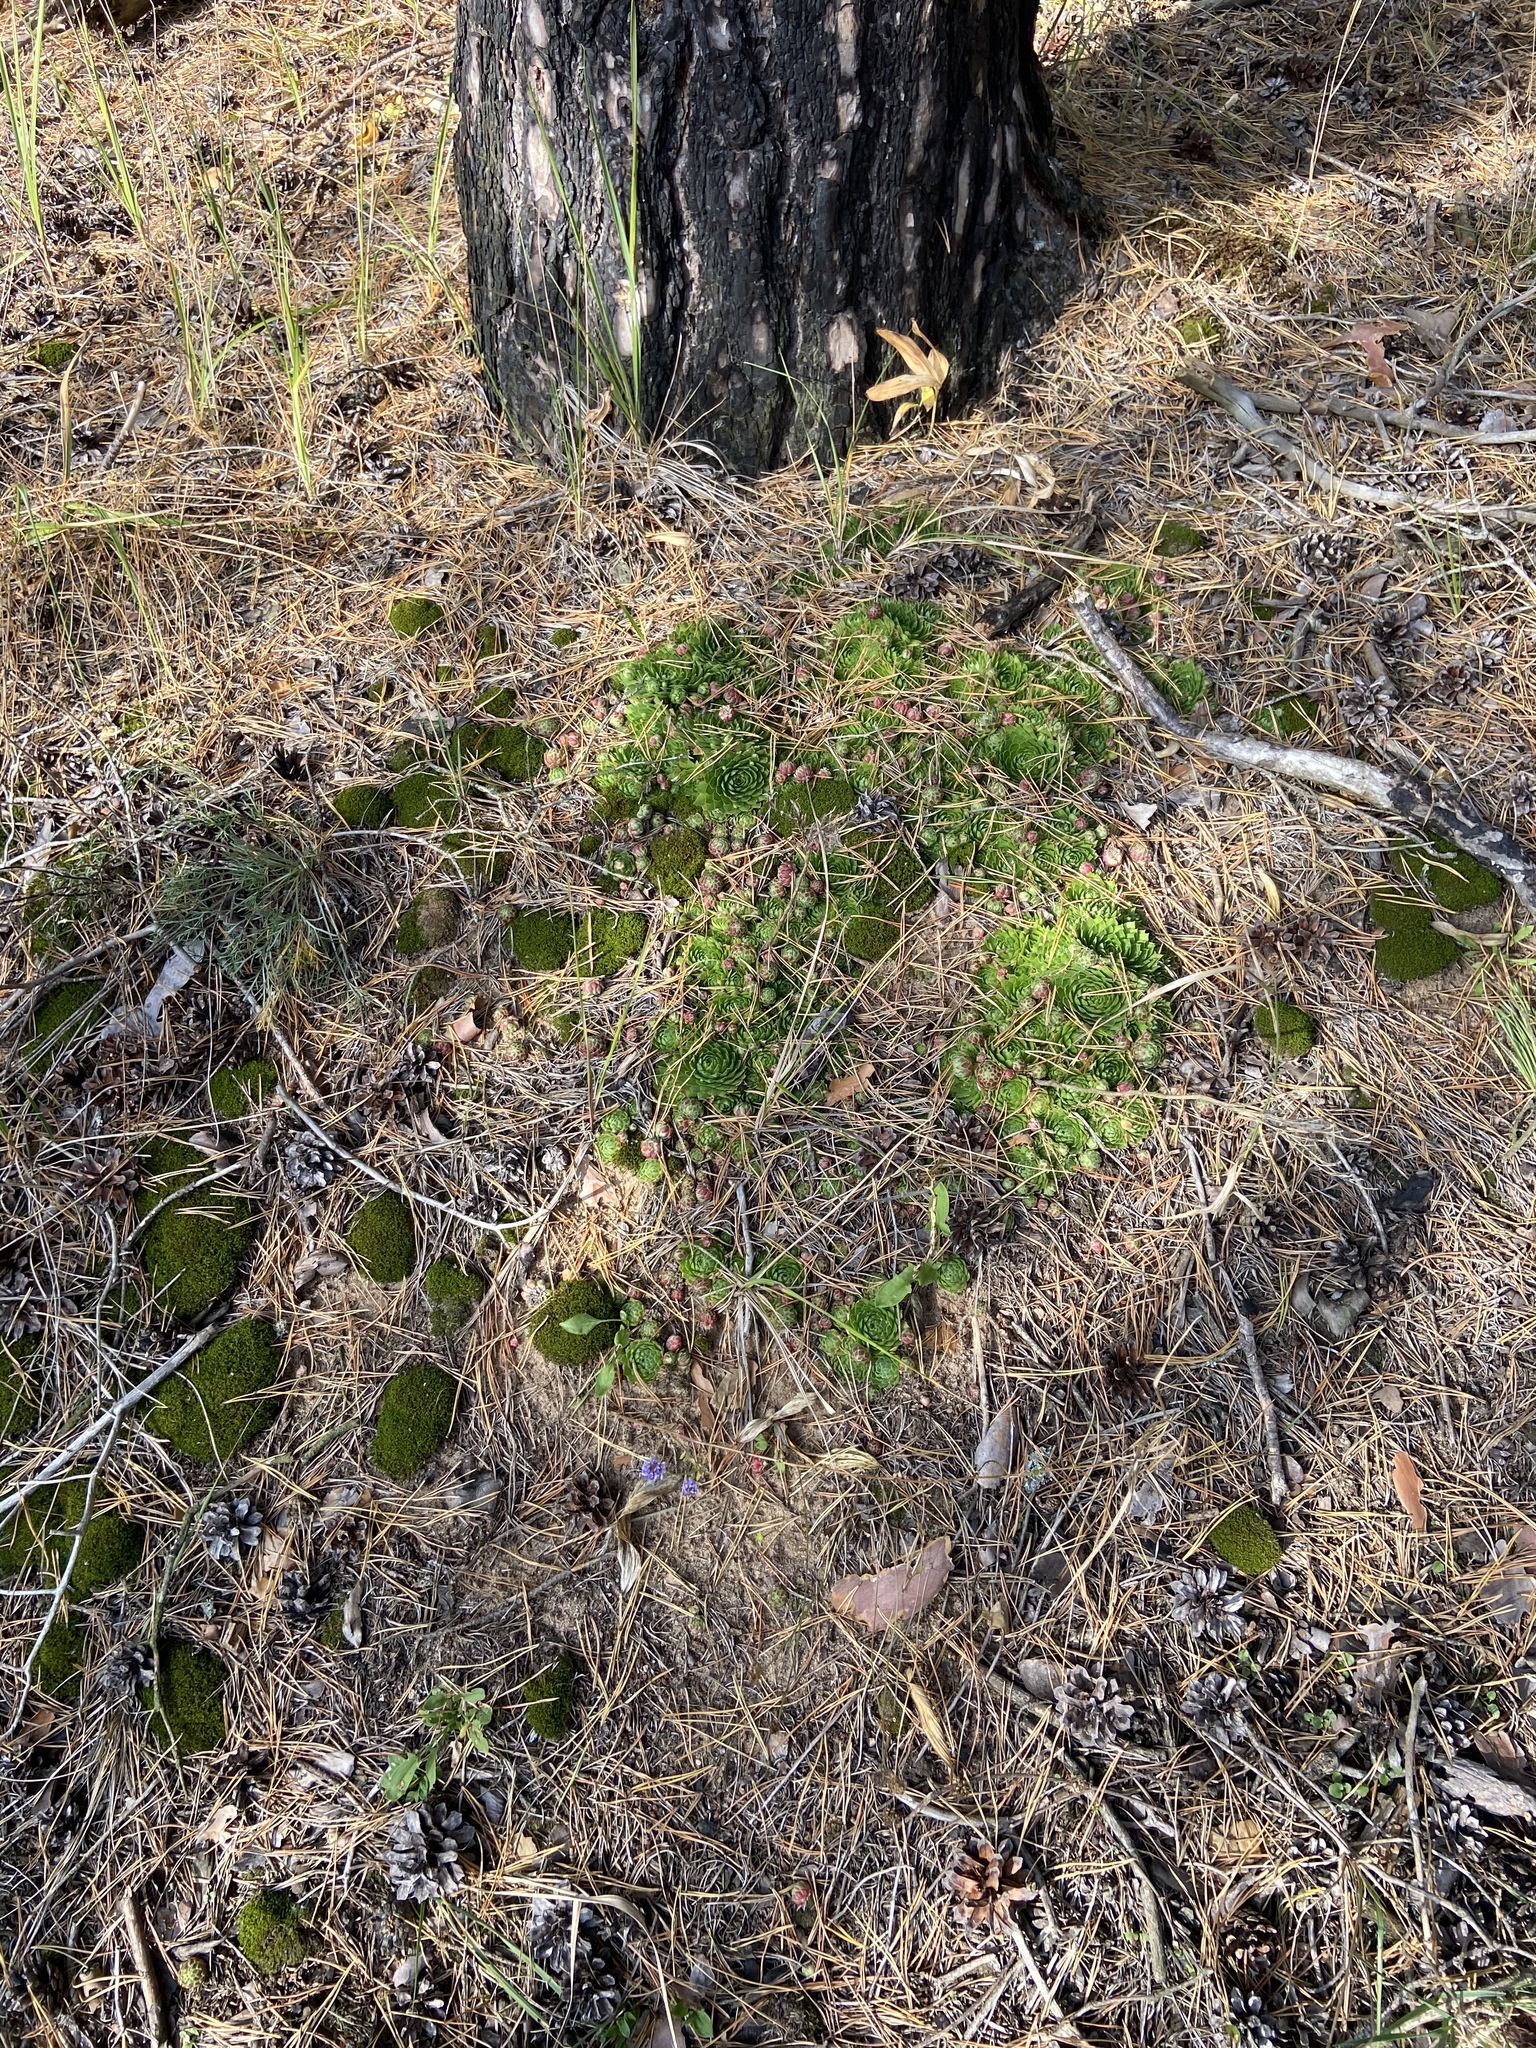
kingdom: Plantae
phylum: Tracheophyta
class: Magnoliopsida
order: Saxifragales
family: Crassulaceae
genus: Sempervivum
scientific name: Sempervivum globiferum
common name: Rolling hen-and-chicks
